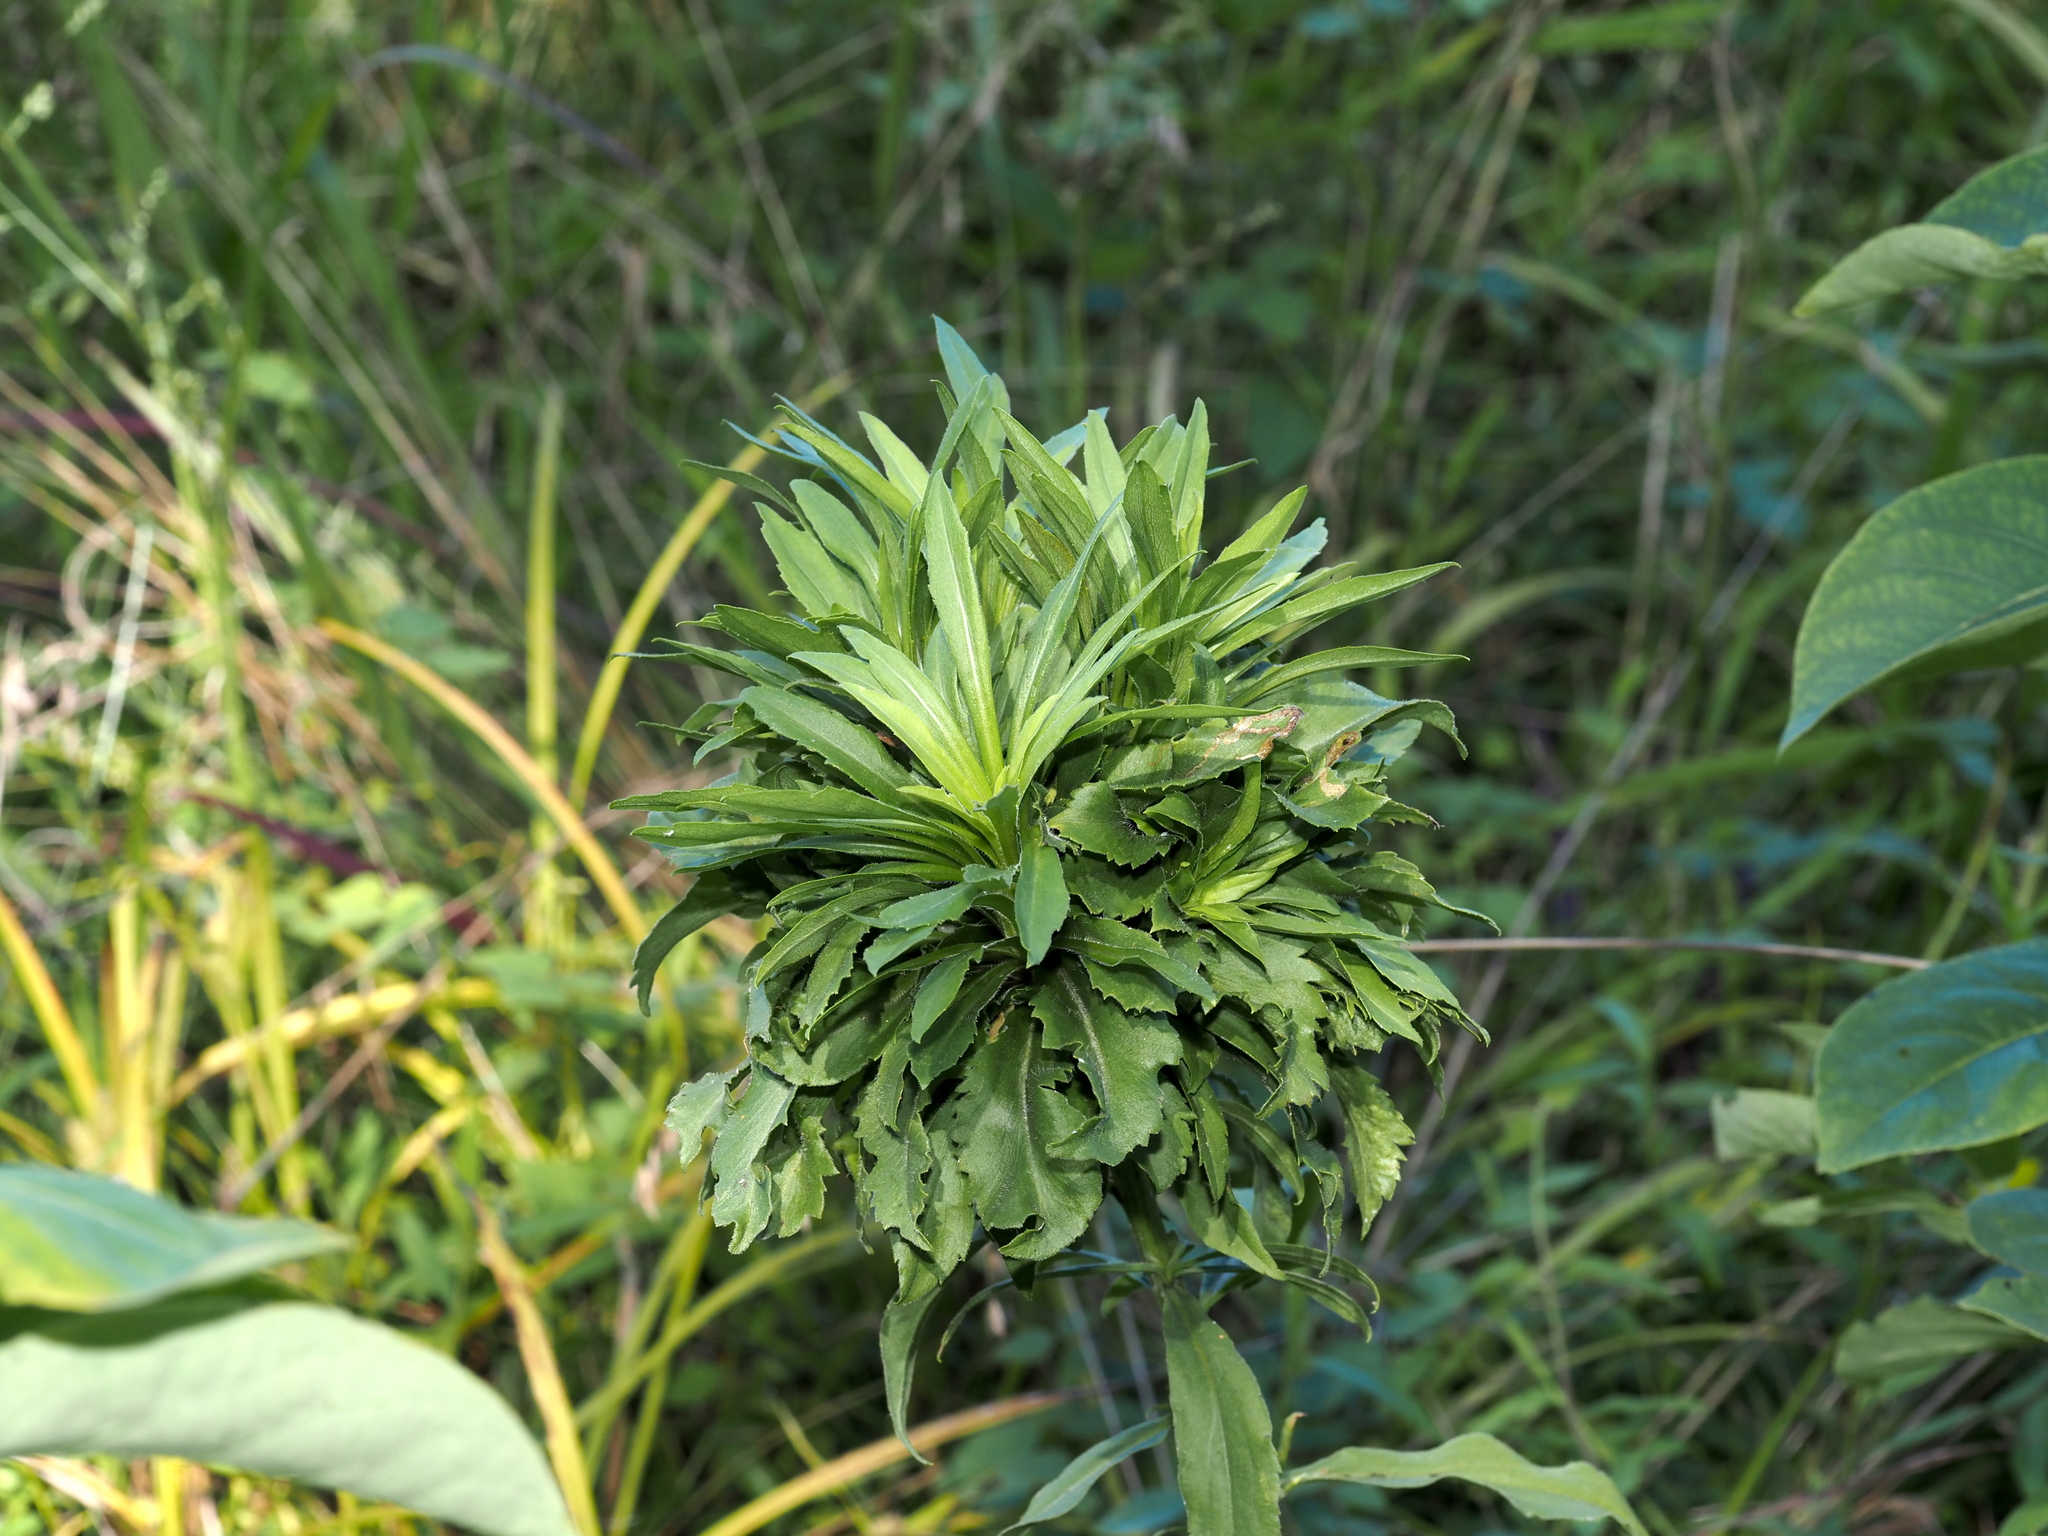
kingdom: Animalia
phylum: Arthropoda
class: Insecta
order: Diptera
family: Cecidomyiidae
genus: Asphondylia
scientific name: Asphondylia monacha
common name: Nun midge
